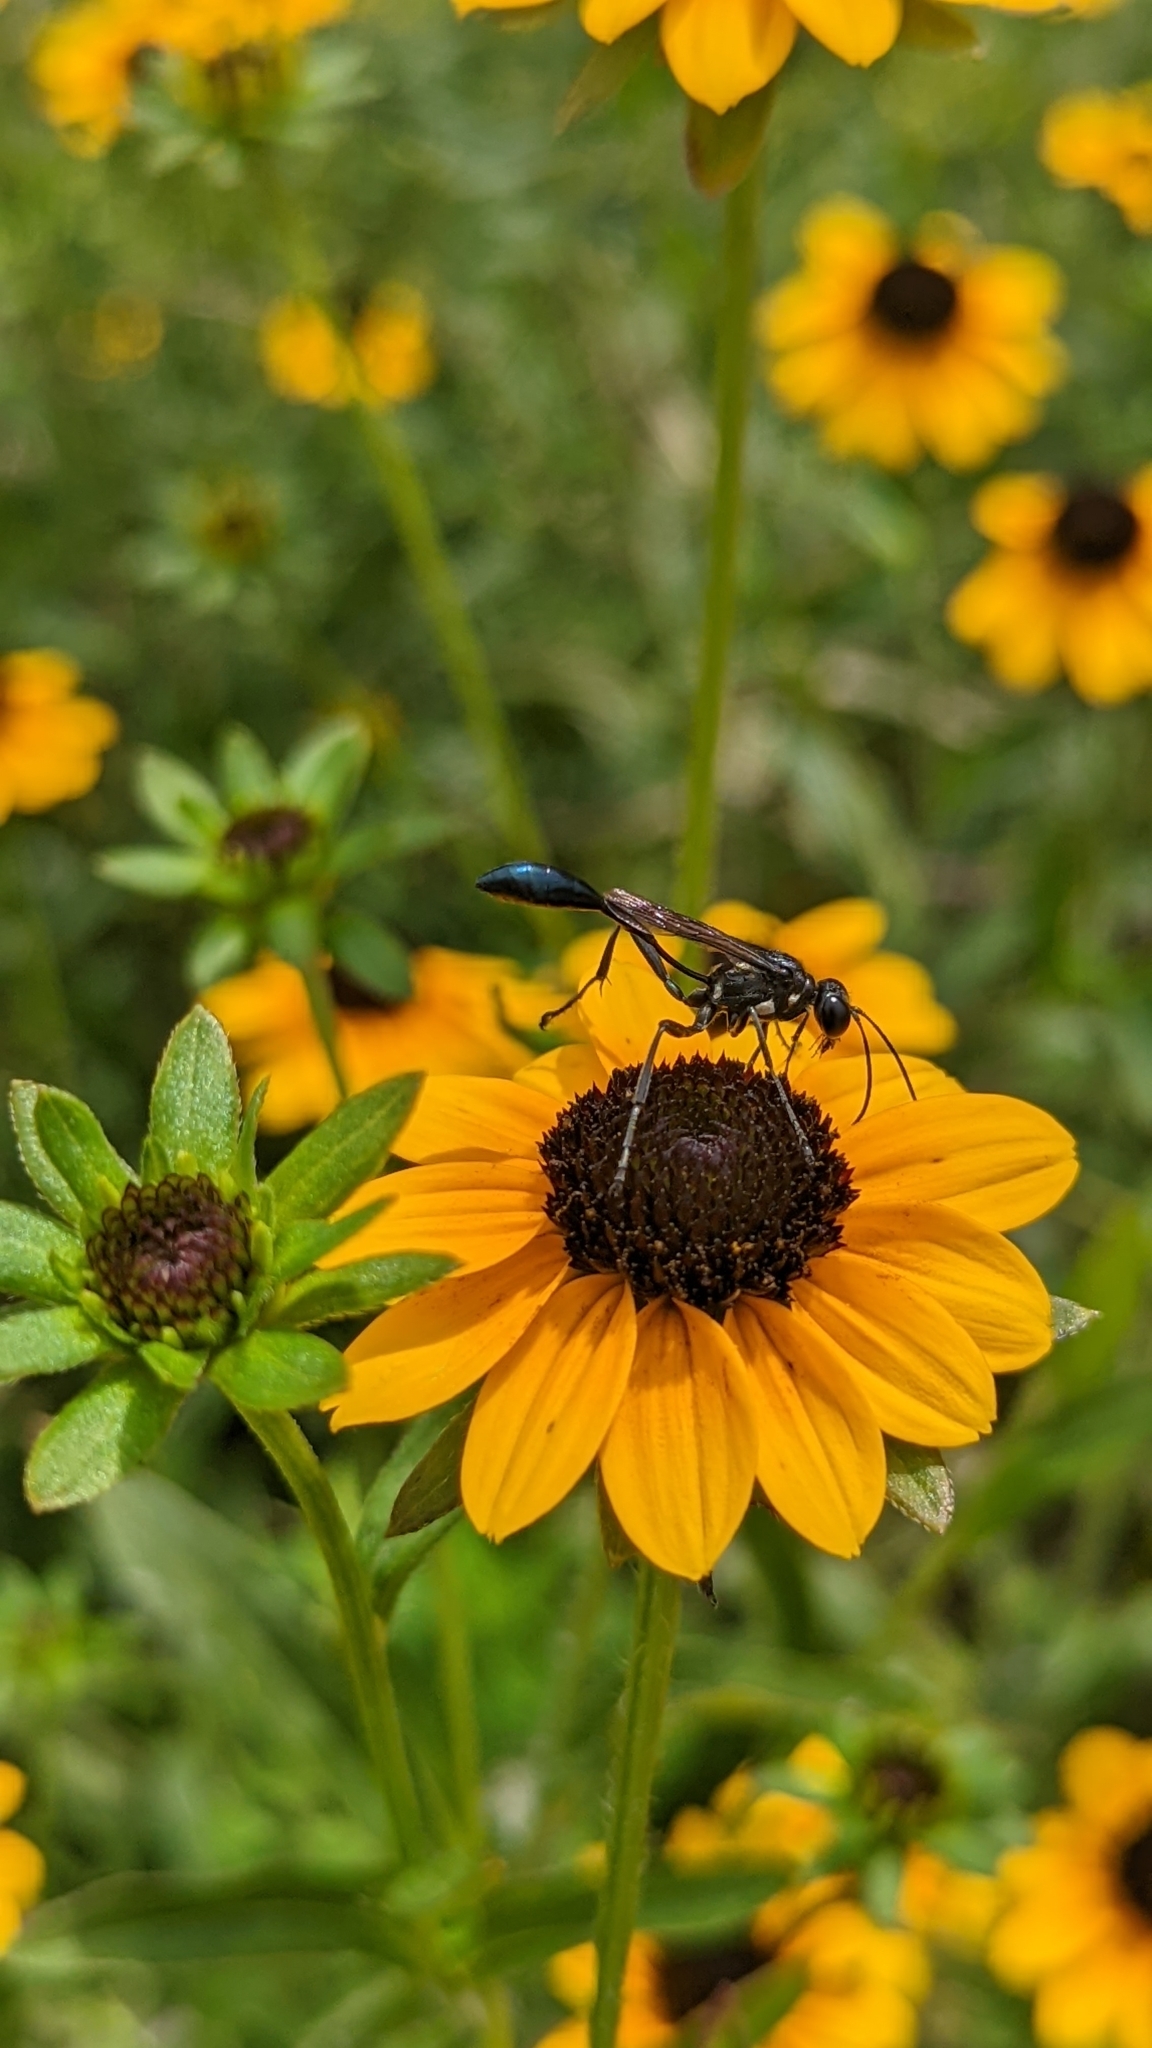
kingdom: Animalia
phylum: Arthropoda
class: Insecta
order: Hymenoptera
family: Sphecidae
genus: Eremnophila
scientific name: Eremnophila aureonotata
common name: Gold-marked thread-waisted wasp
